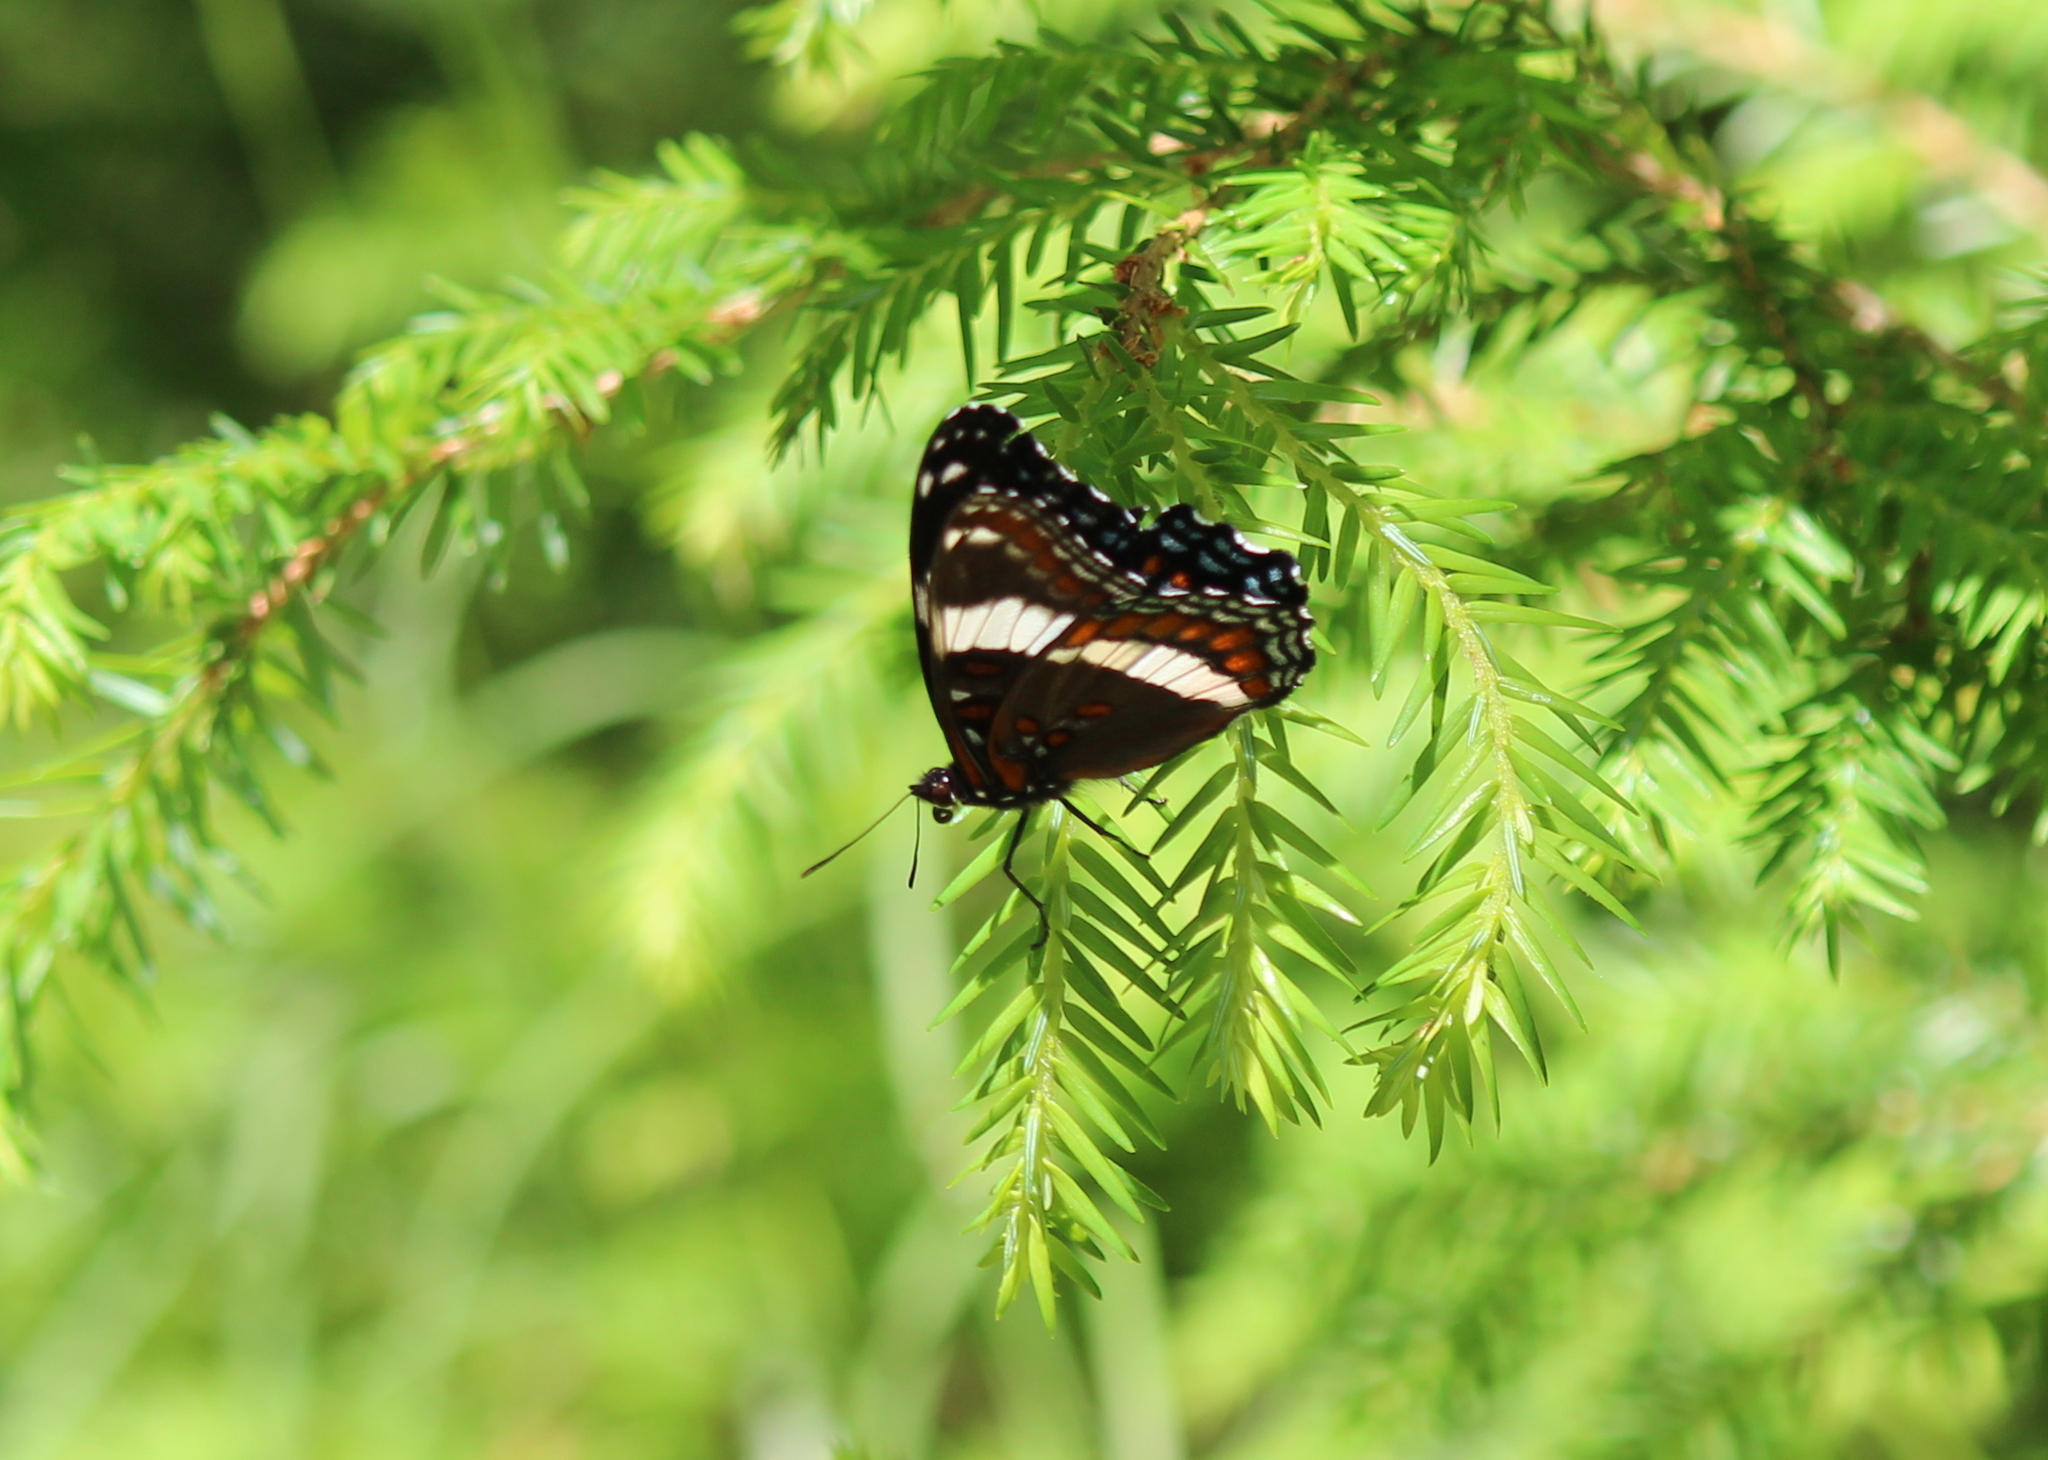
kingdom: Animalia
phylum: Arthropoda
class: Insecta
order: Lepidoptera
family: Nymphalidae
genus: Limenitis
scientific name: Limenitis arthemis
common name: Red-spotted admiral
